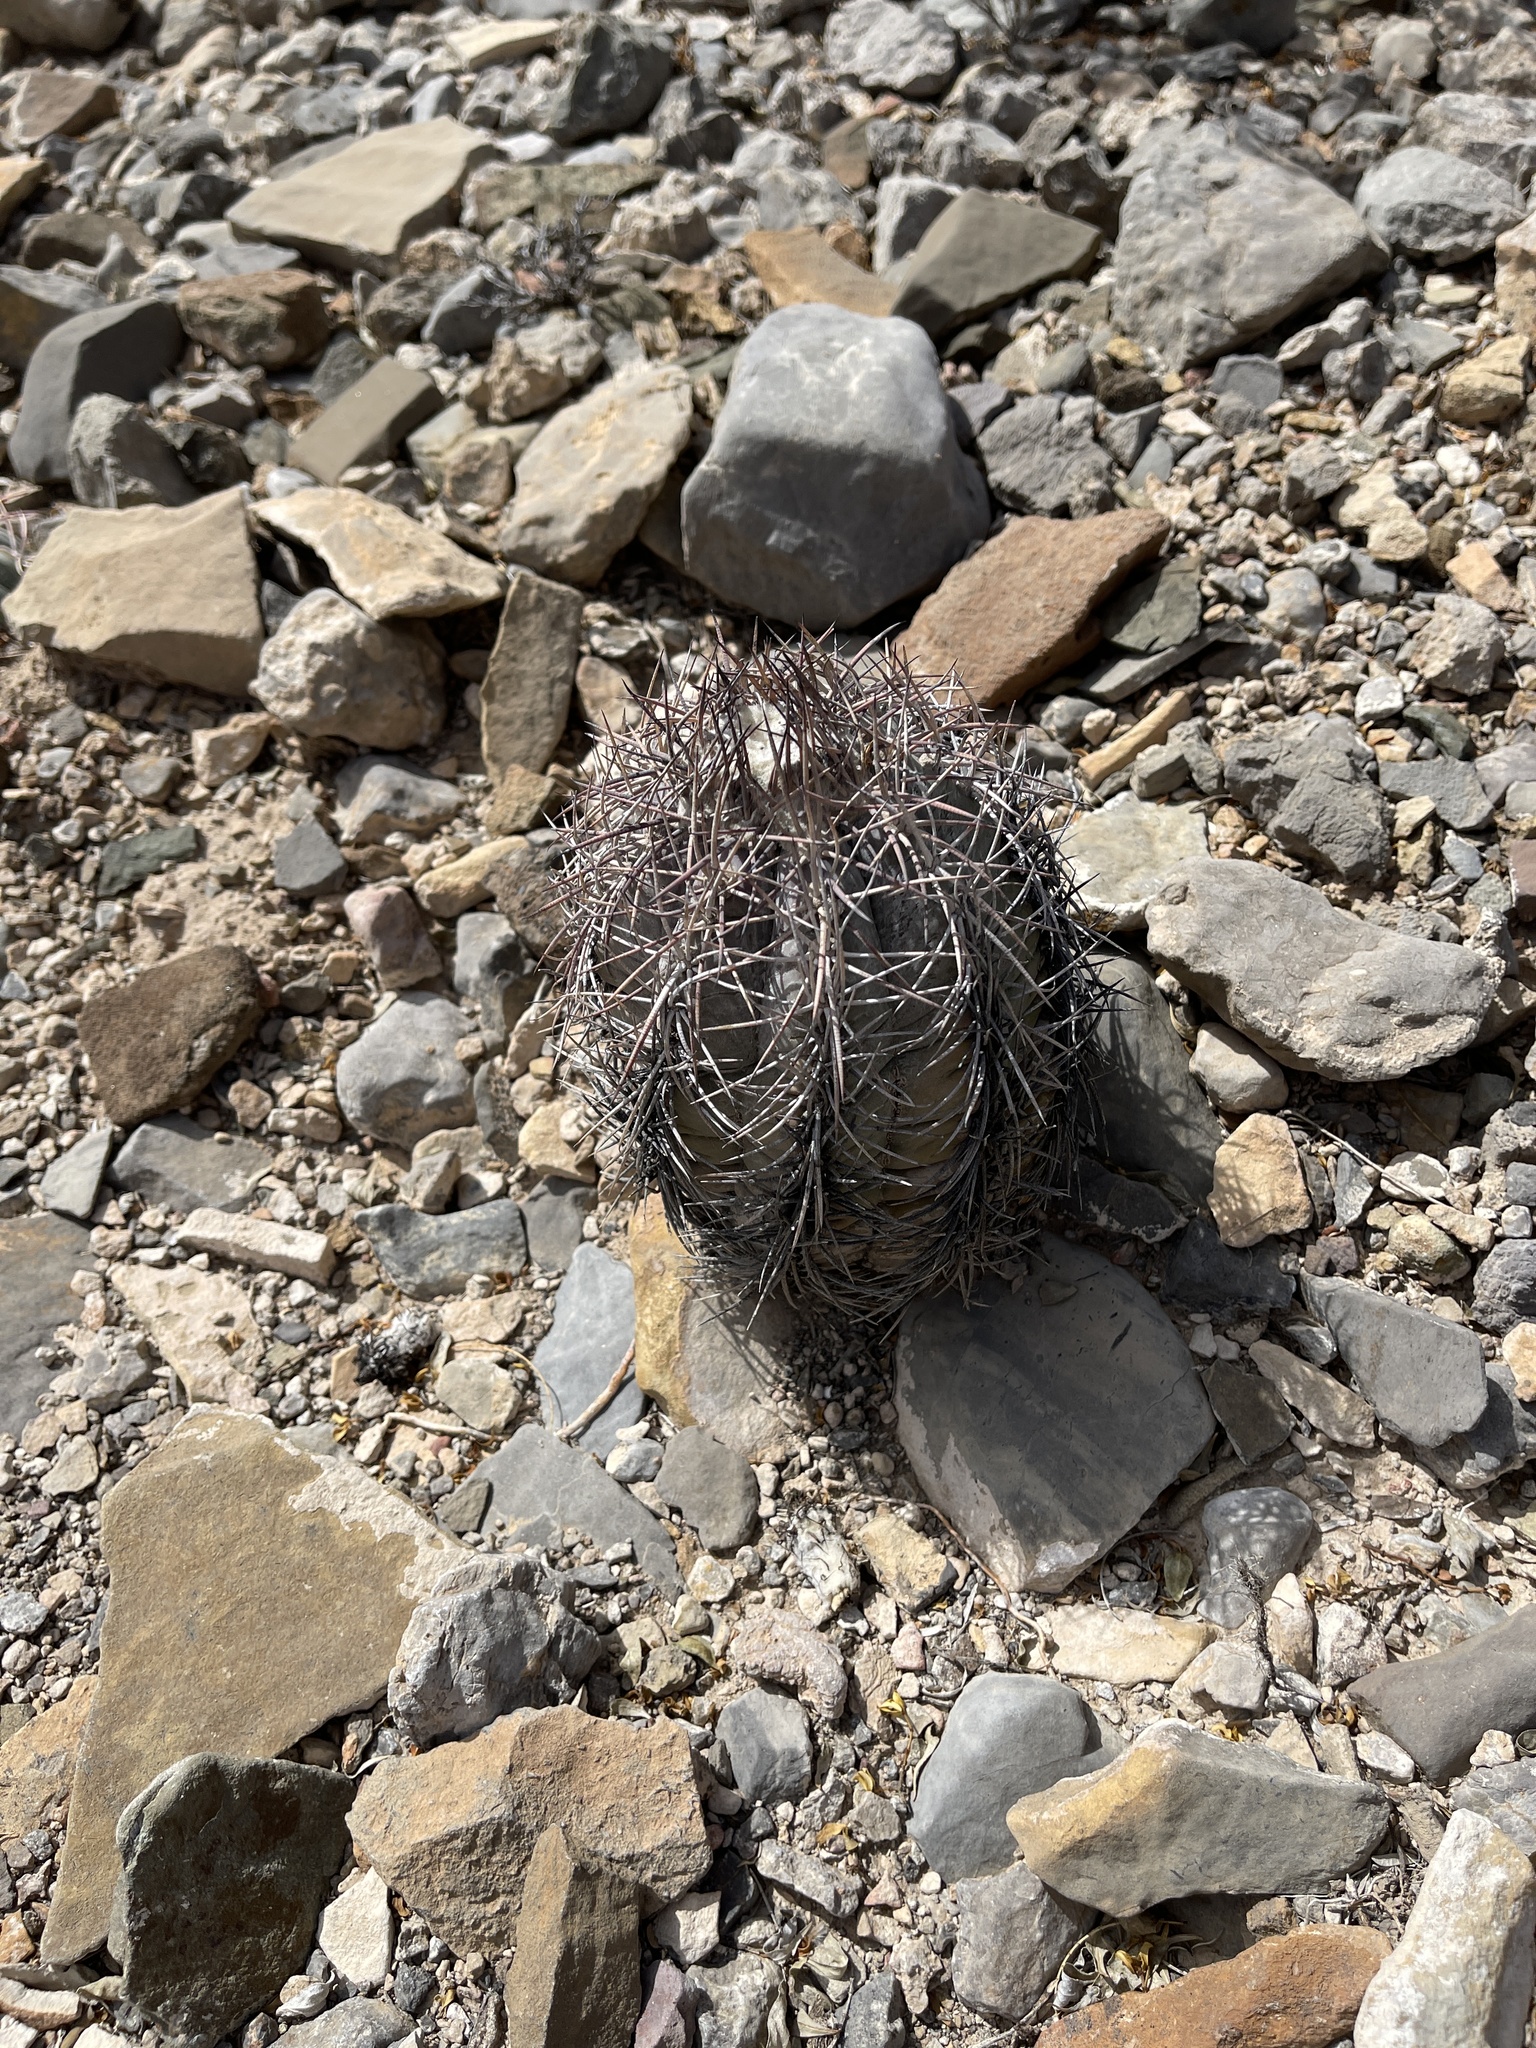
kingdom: Plantae
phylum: Tracheophyta
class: Magnoliopsida
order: Caryophyllales
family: Cactaceae
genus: Echinocactus
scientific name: Echinocactus horizonthalonius
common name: Devilshead
